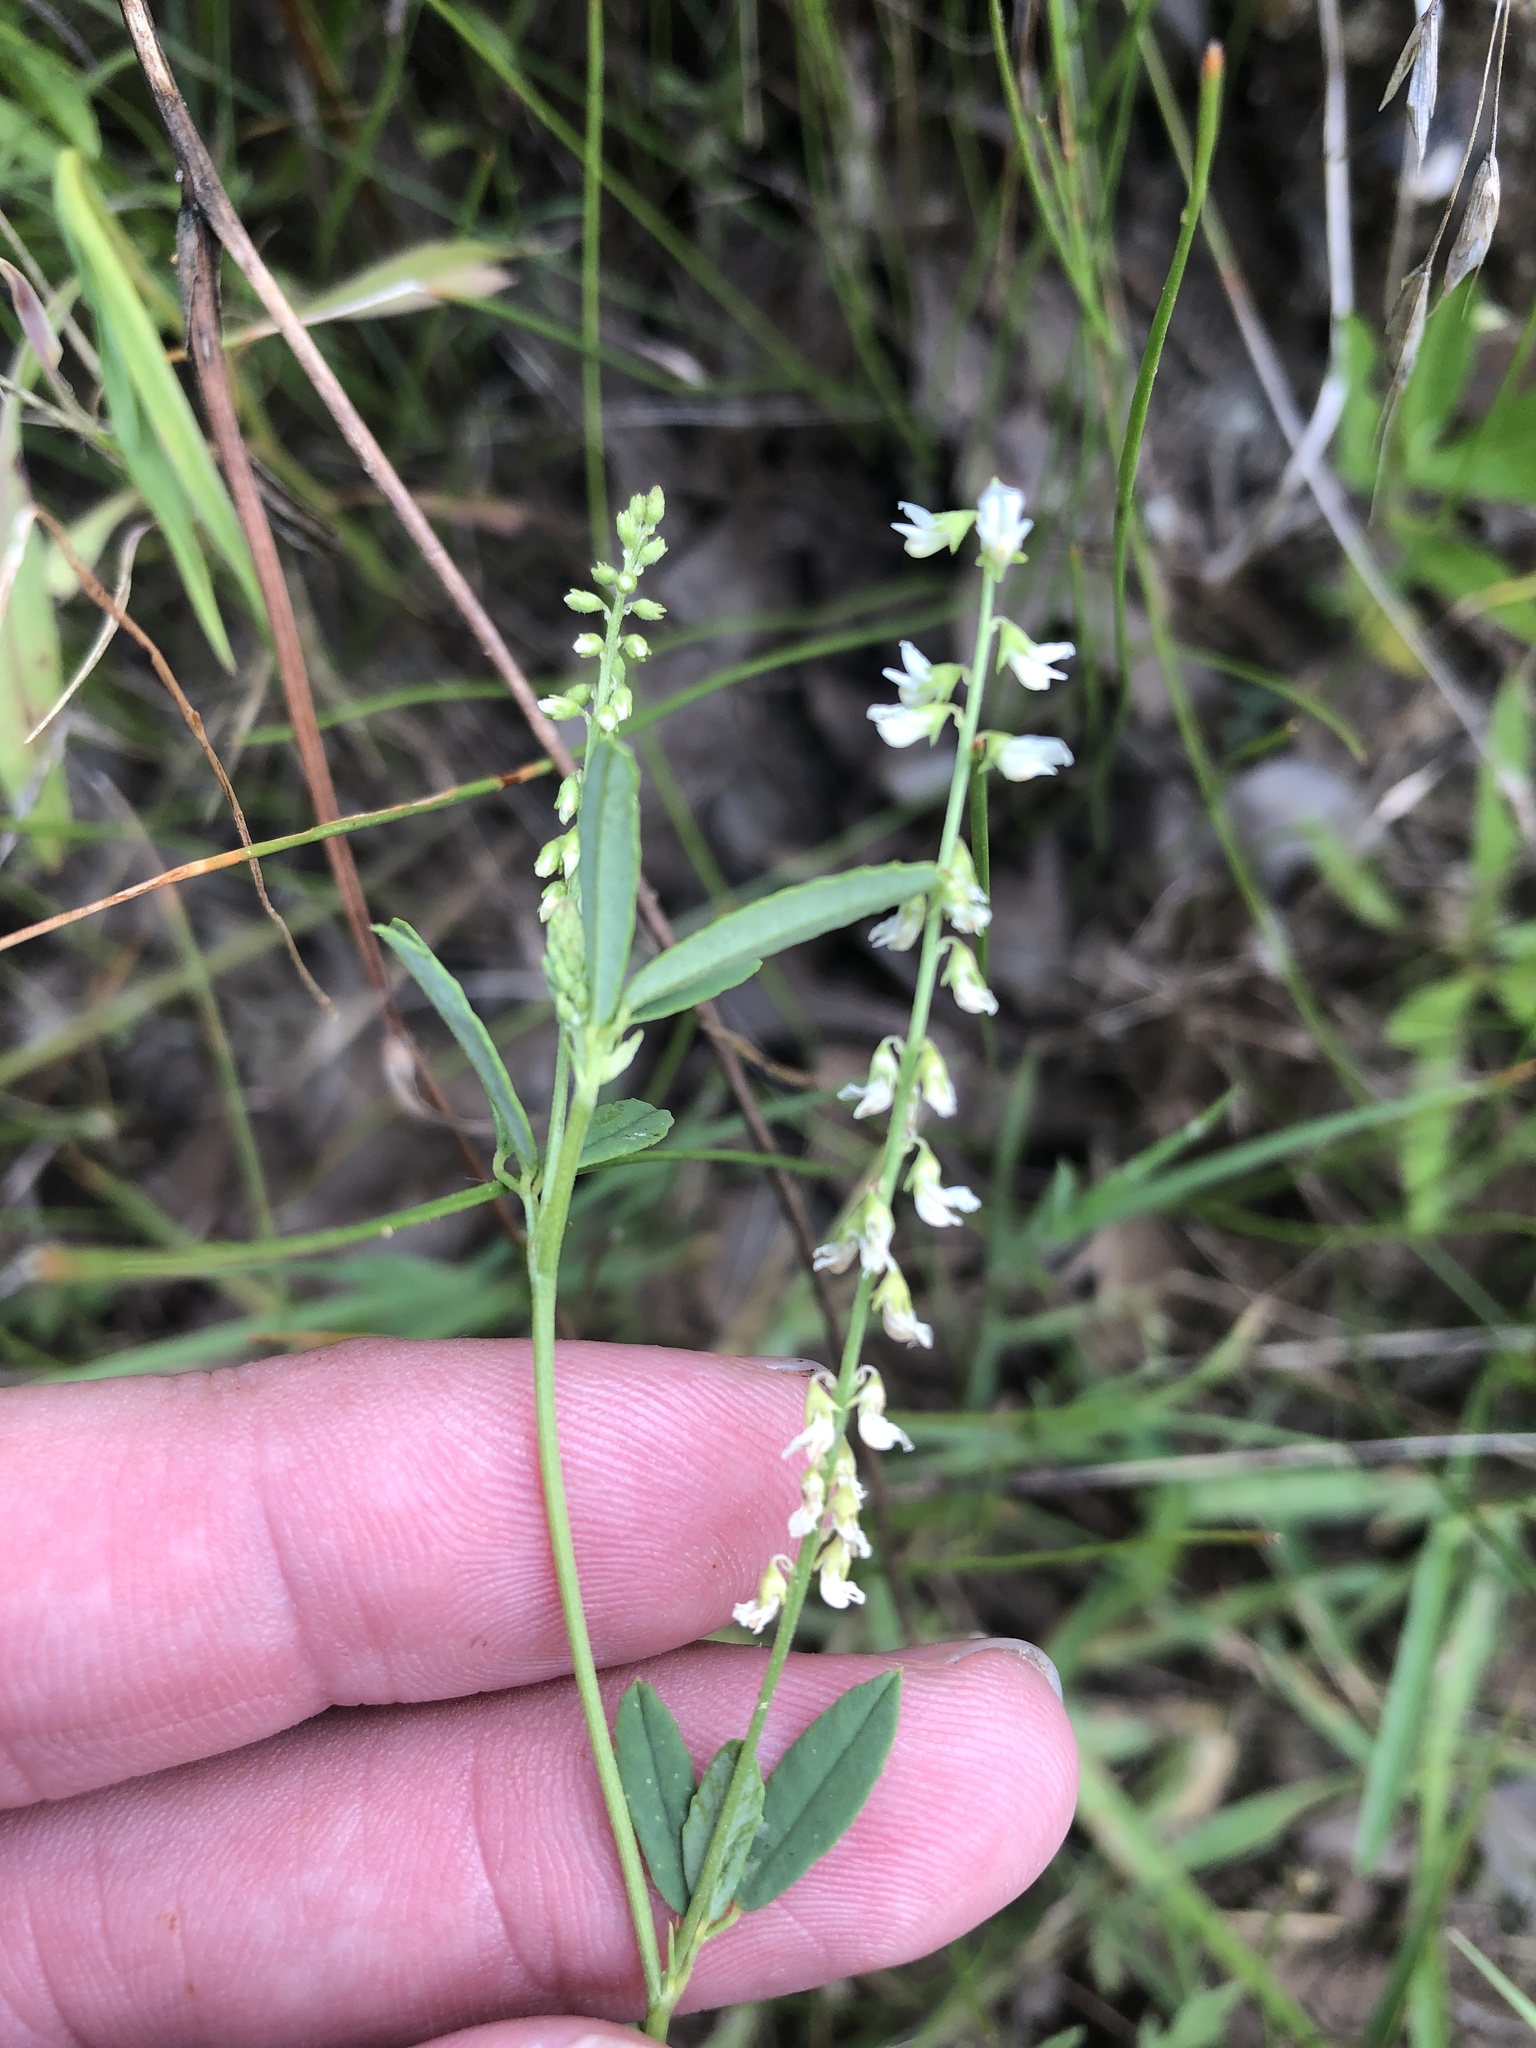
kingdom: Plantae
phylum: Tracheophyta
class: Magnoliopsida
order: Fabales
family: Fabaceae
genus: Melilotus
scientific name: Melilotus albus
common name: White melilot
